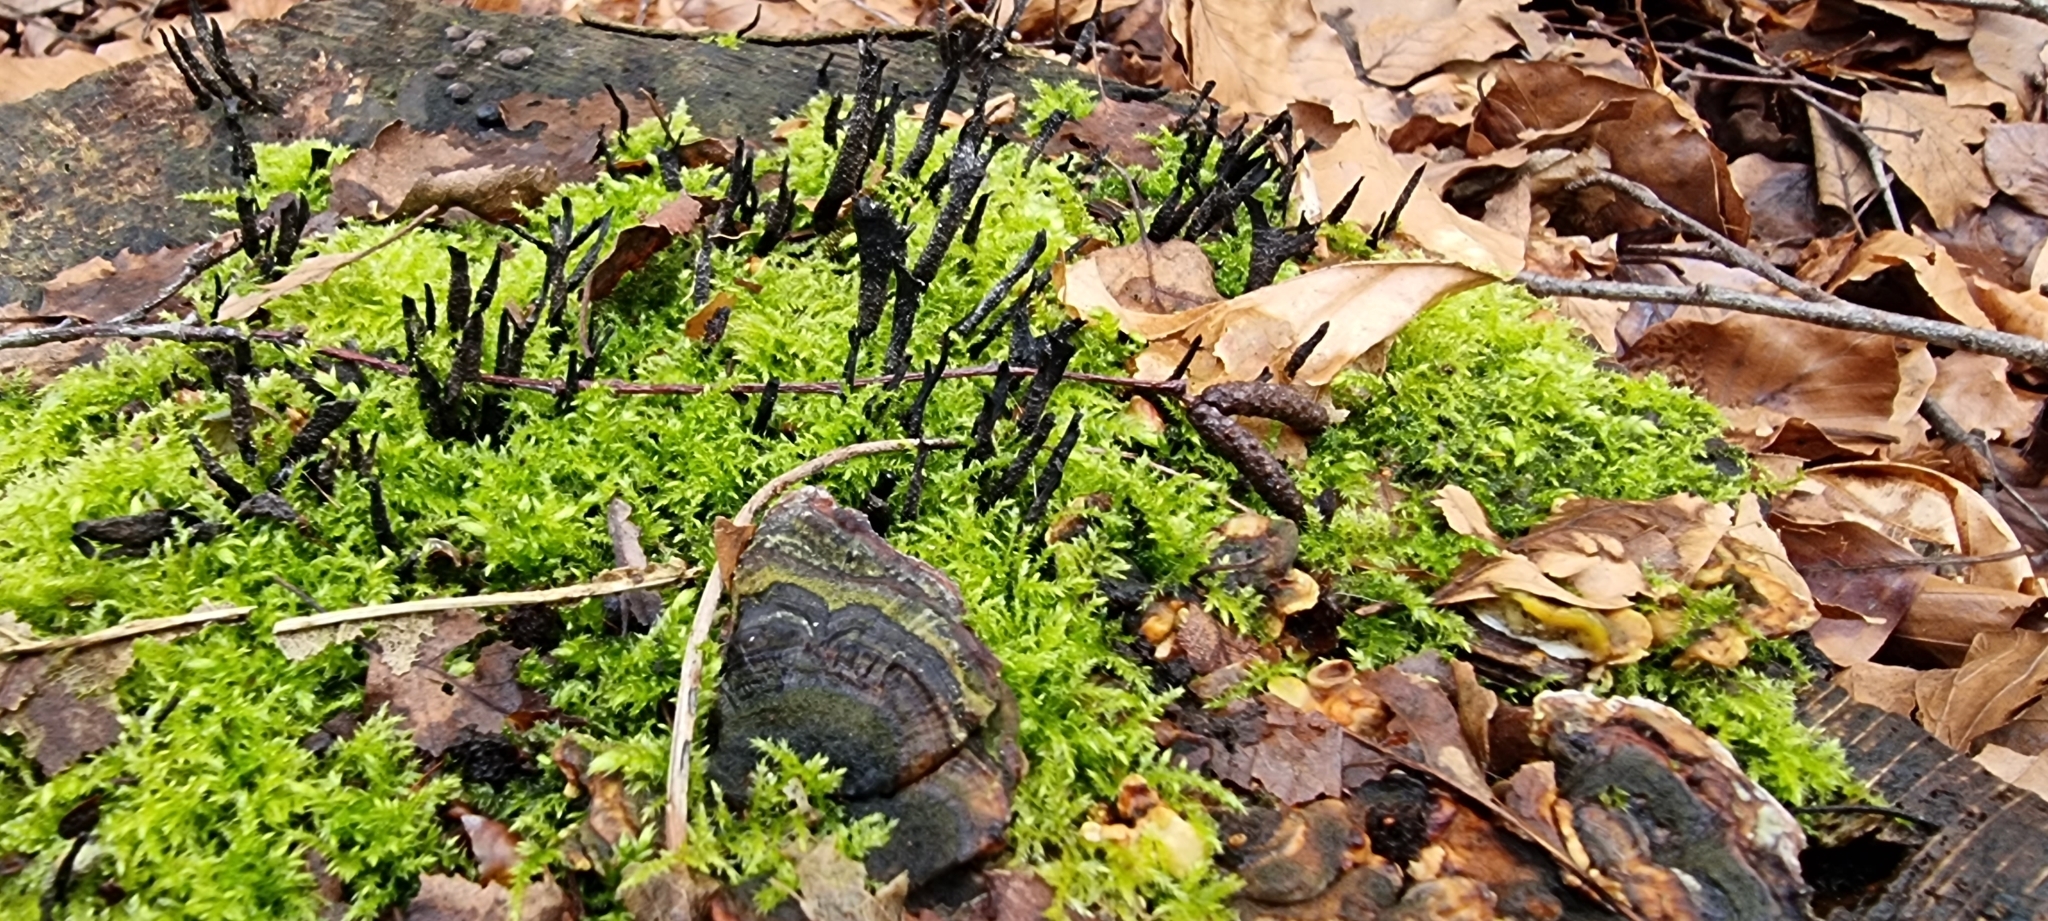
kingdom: Fungi
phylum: Ascomycota
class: Sordariomycetes
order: Xylariales
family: Xylariaceae
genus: Xylaria
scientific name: Xylaria hypoxylon
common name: Candle-snuff fungus
